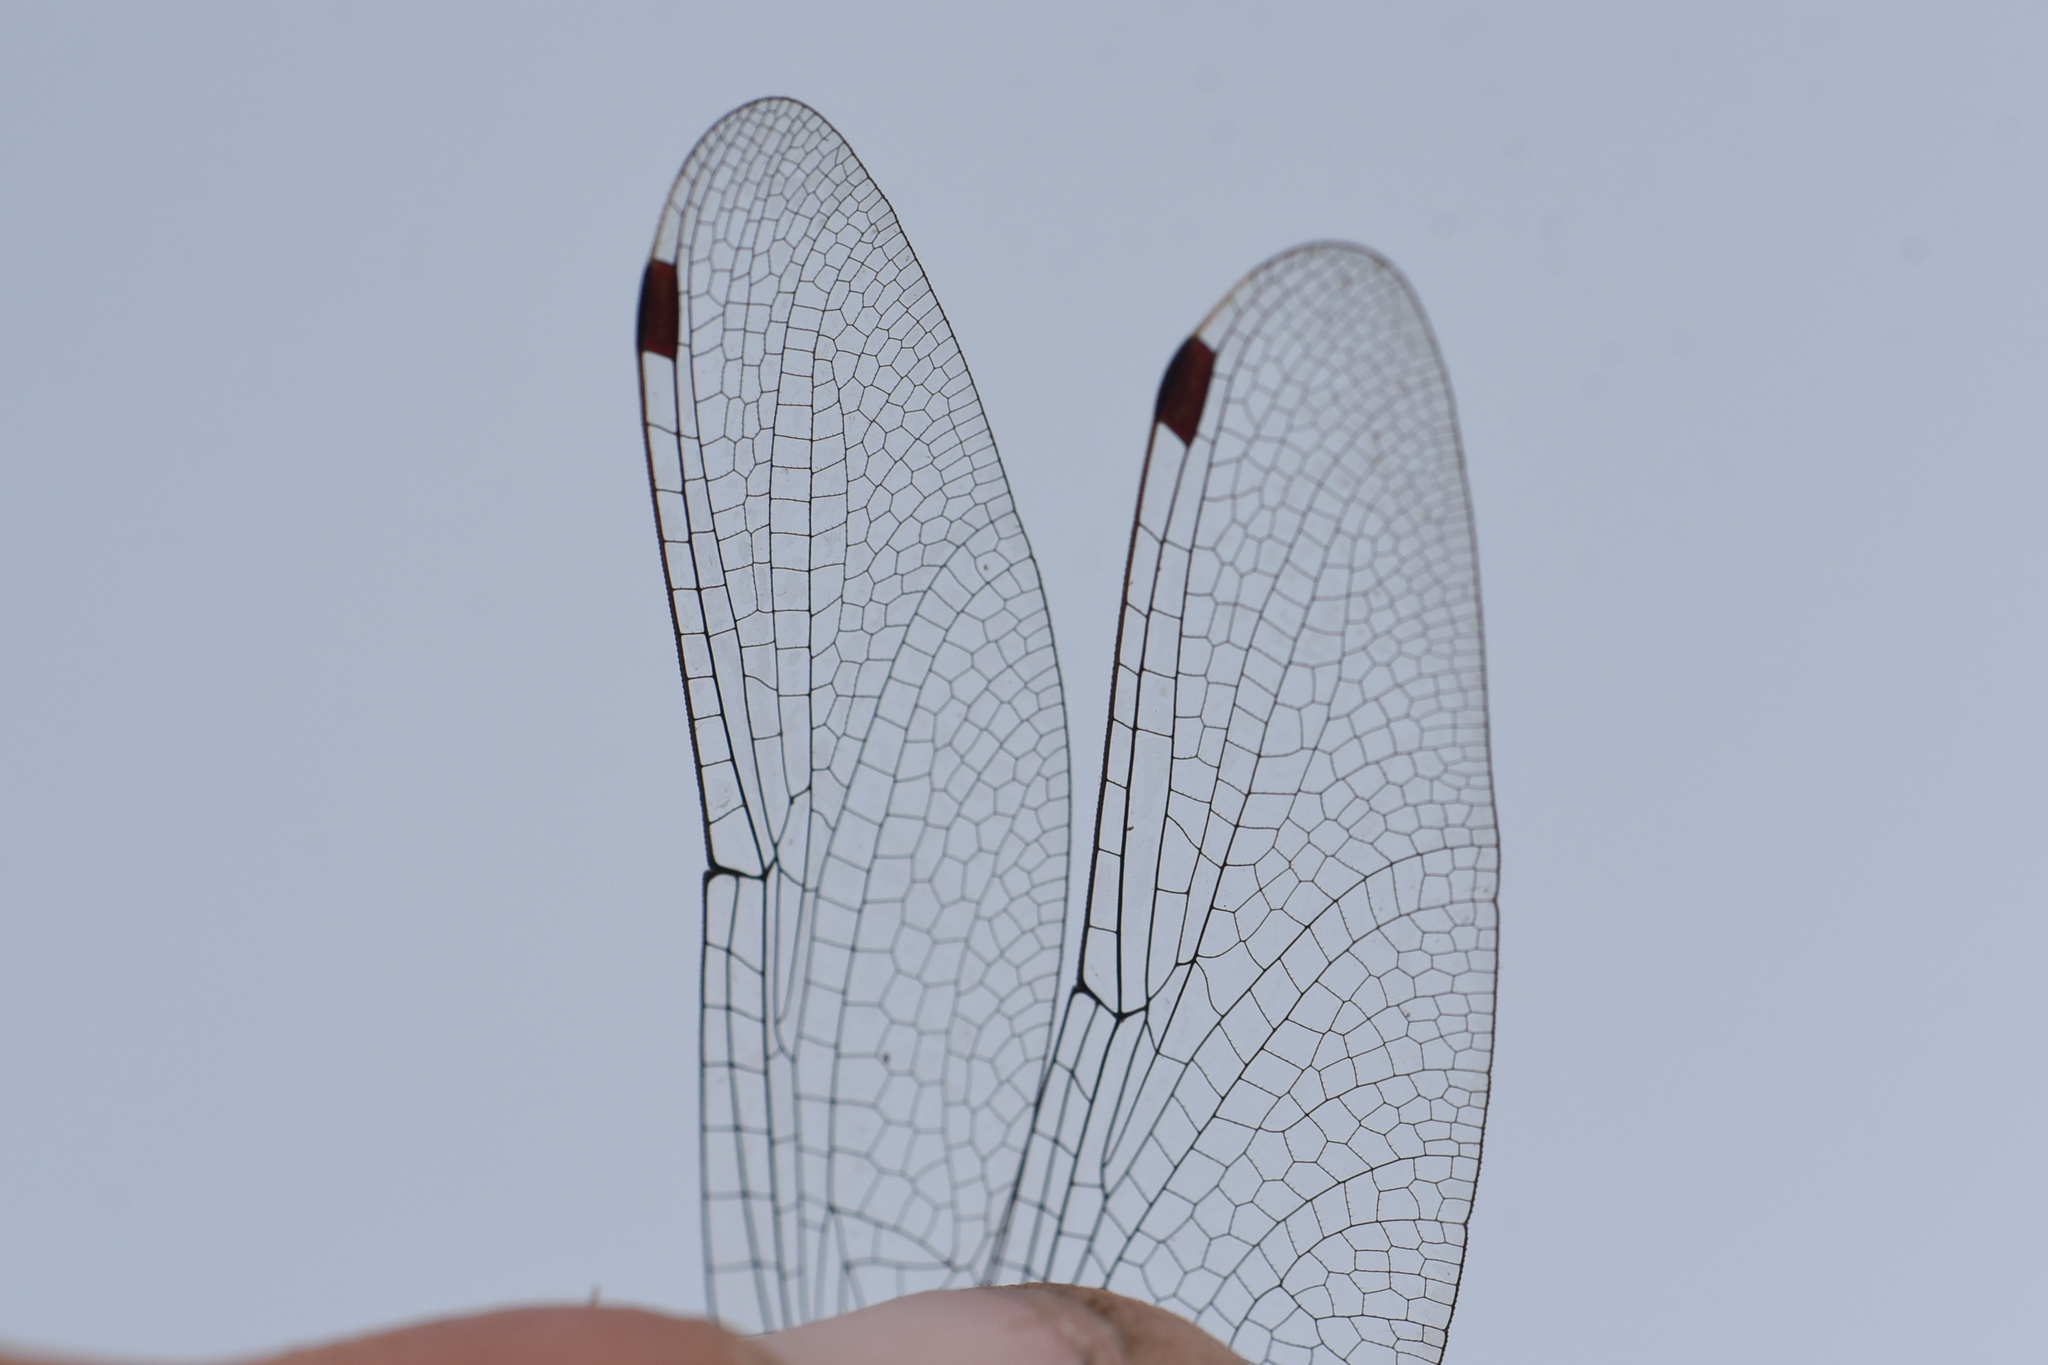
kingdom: Animalia
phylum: Arthropoda
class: Insecta
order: Odonata
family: Libellulidae
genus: Leucorrhinia
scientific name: Leucorrhinia proxima
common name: Belted whiteface
